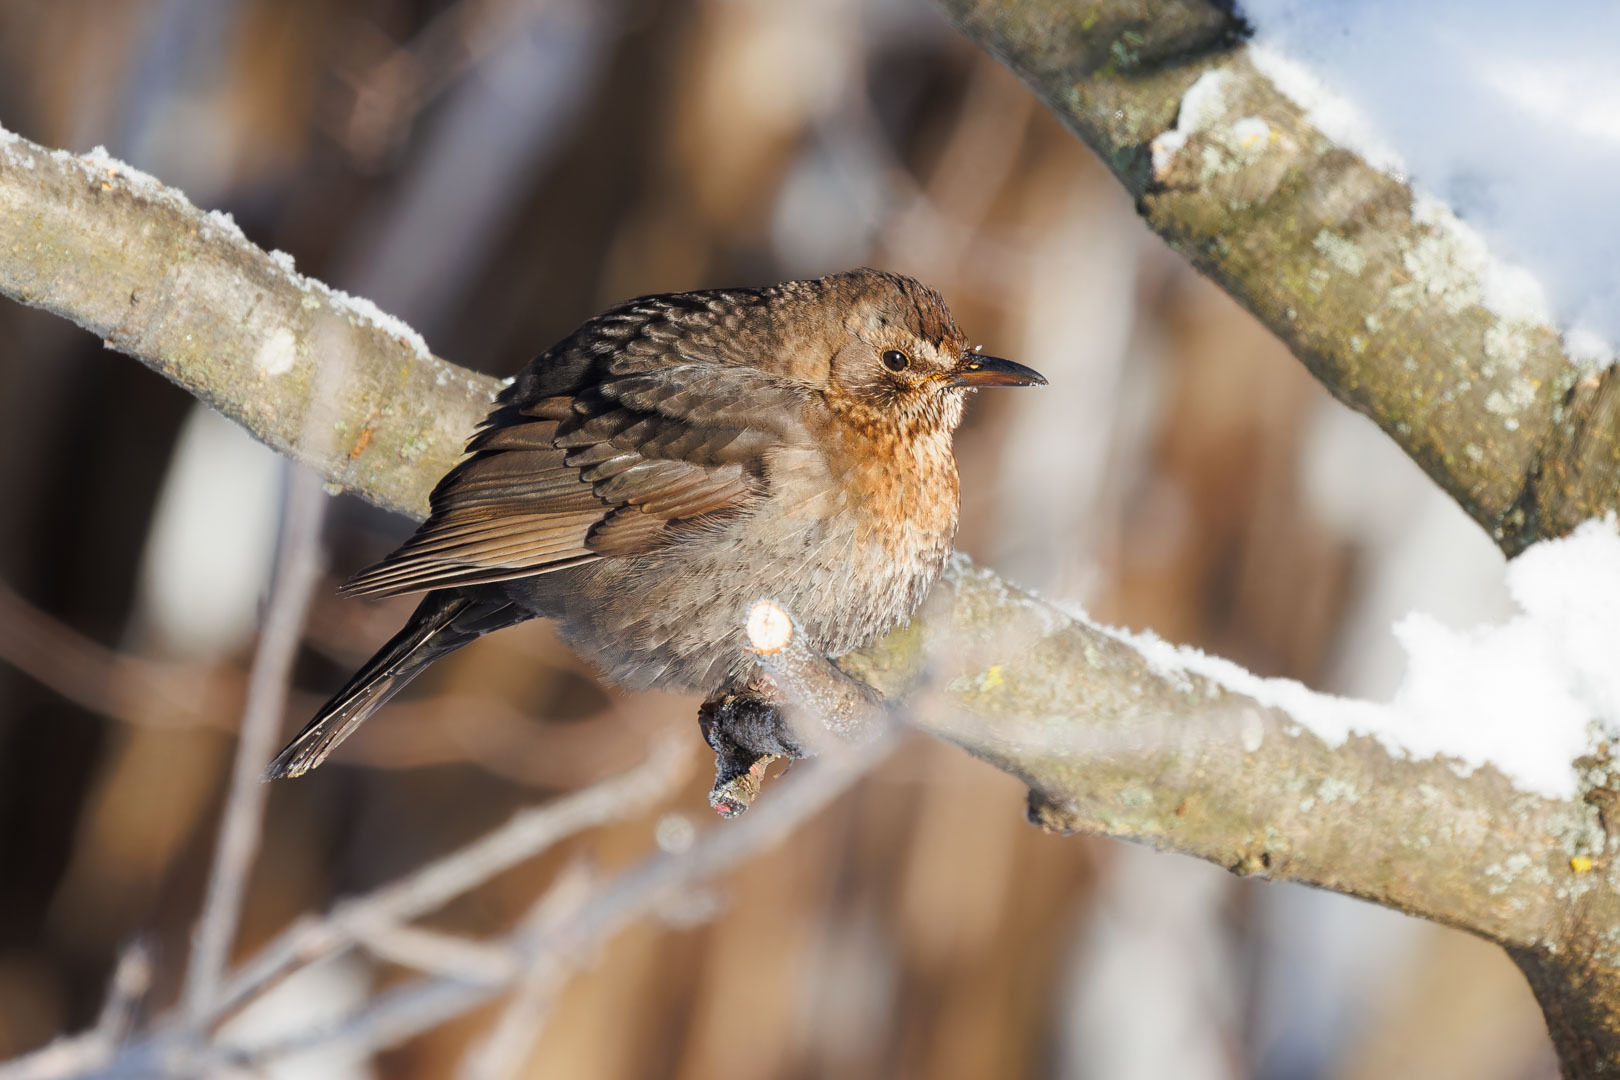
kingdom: Animalia
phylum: Chordata
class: Aves
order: Passeriformes
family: Turdidae
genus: Turdus
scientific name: Turdus merula
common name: Common blackbird
